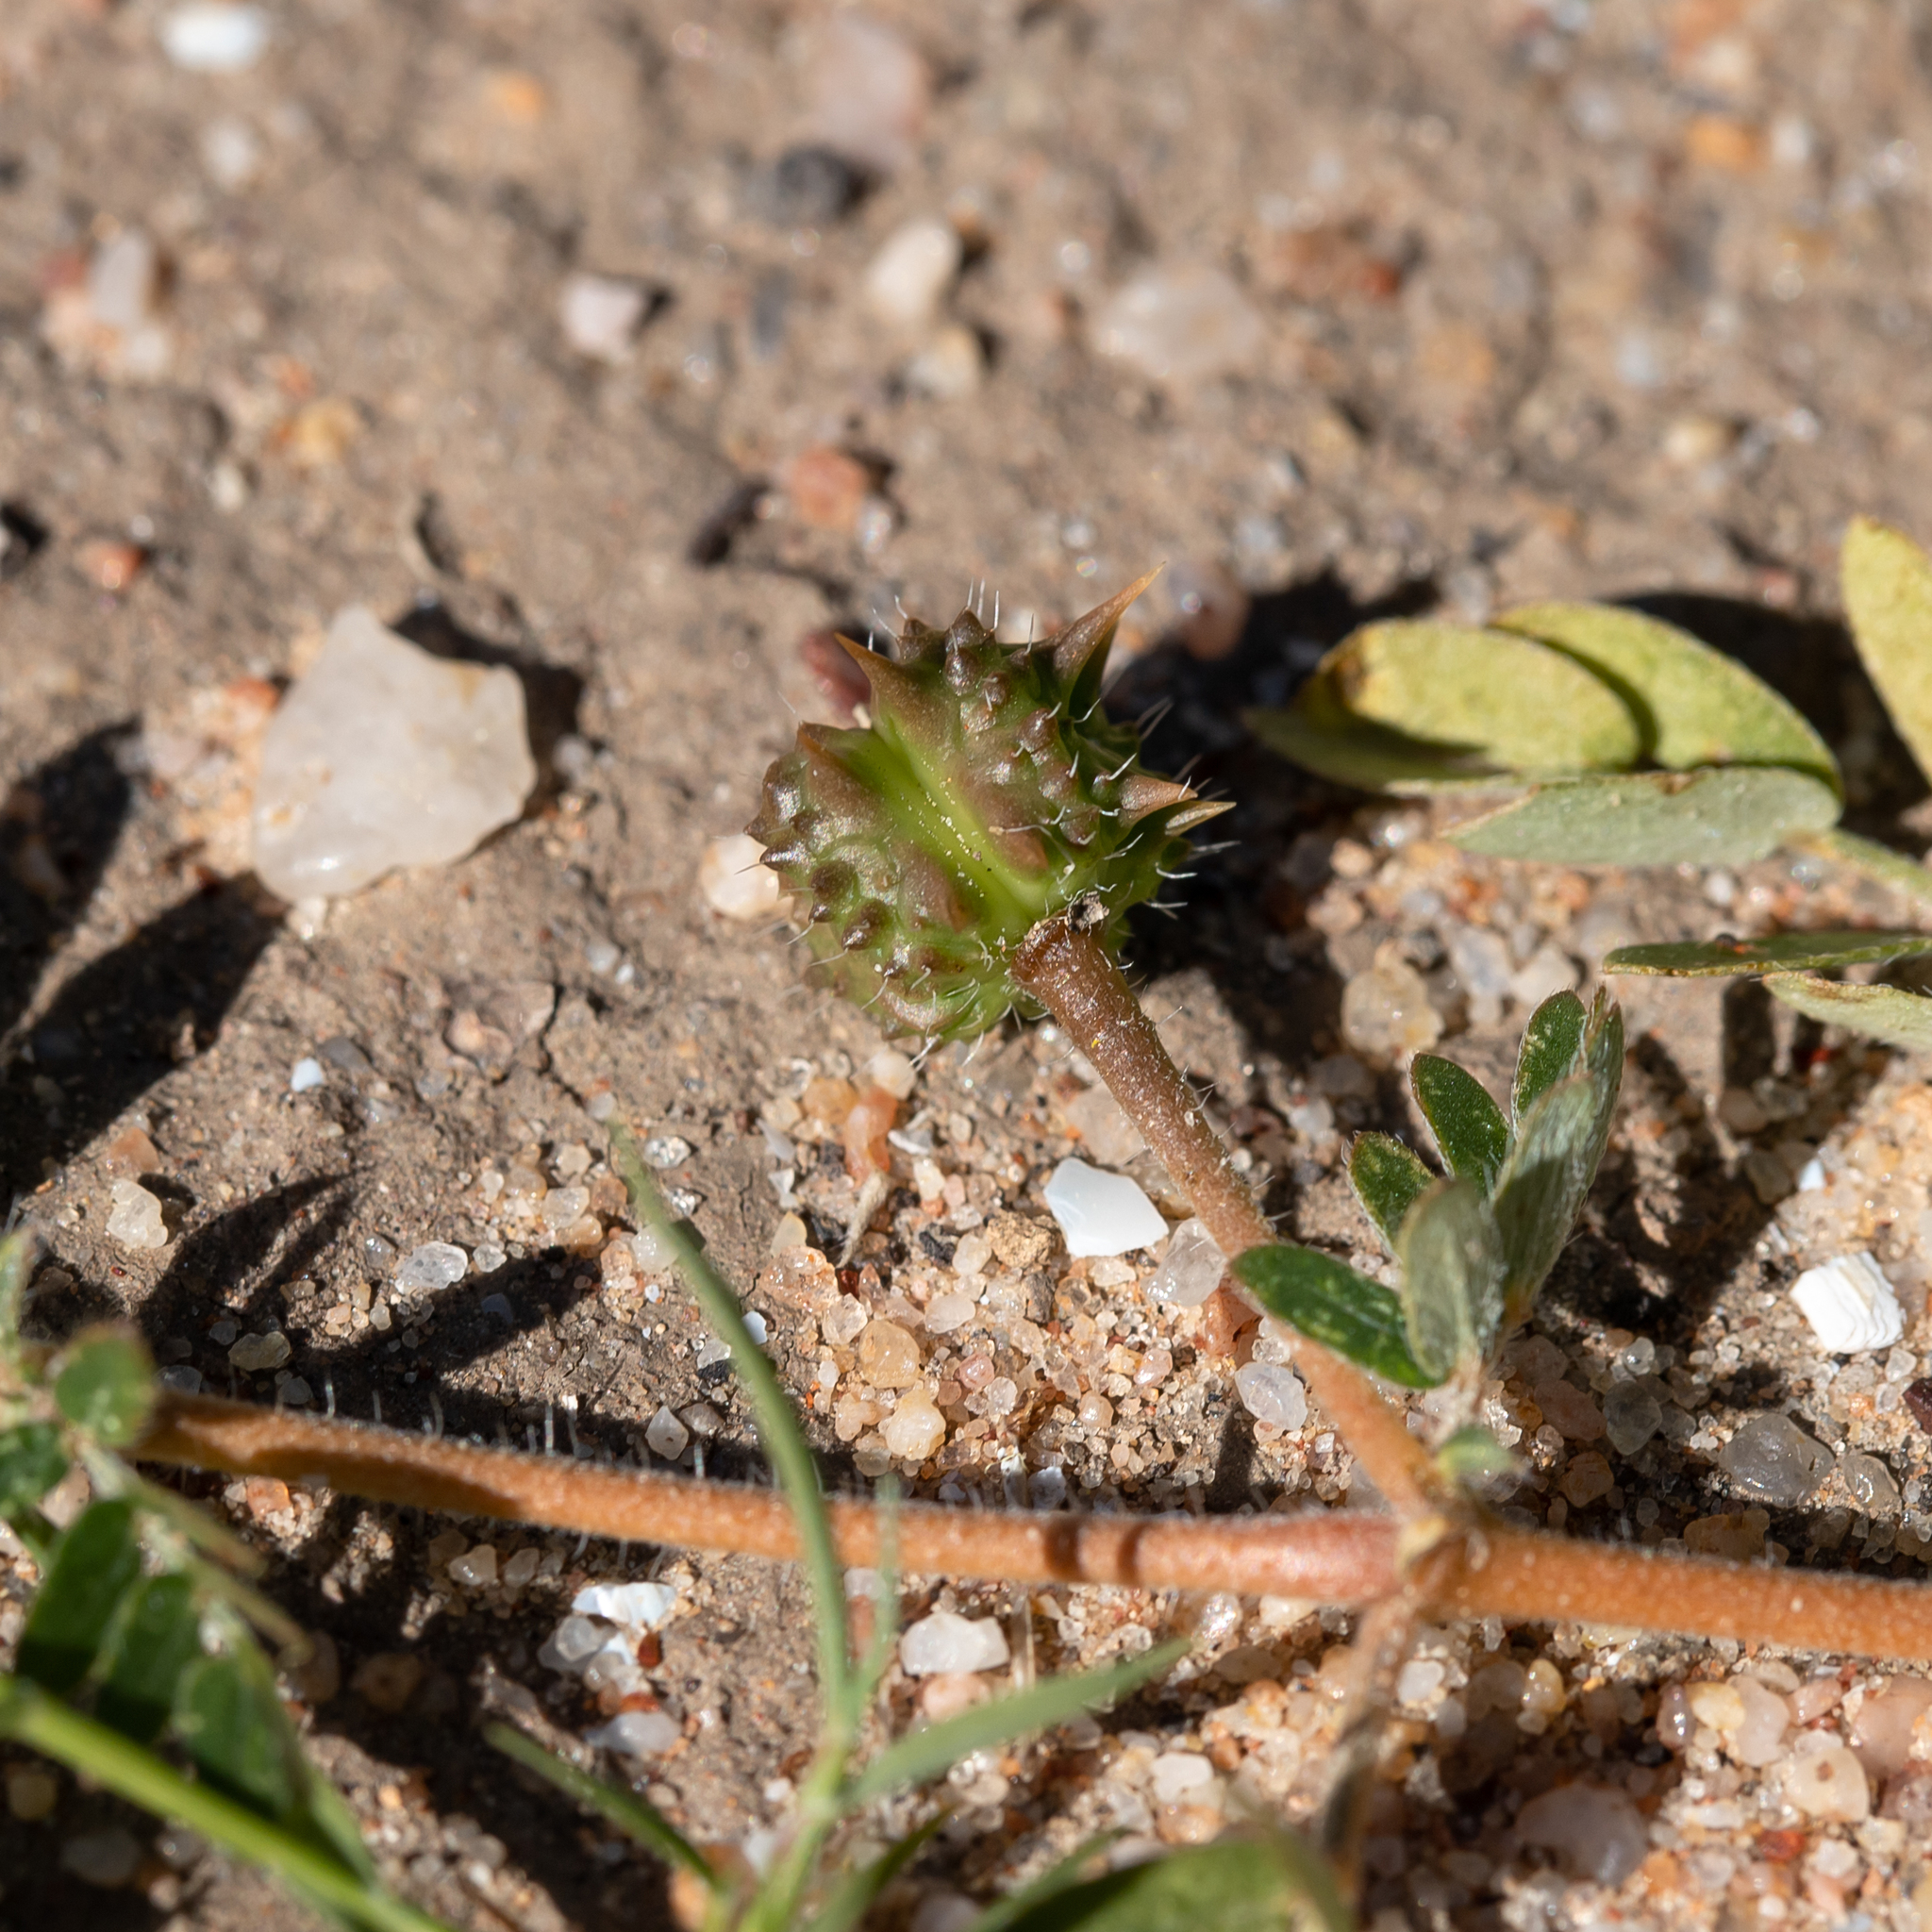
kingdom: Plantae
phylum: Tracheophyta
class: Magnoliopsida
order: Zygophyllales
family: Zygophyllaceae
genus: Tribulus
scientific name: Tribulus terrestris
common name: Puncturevine
